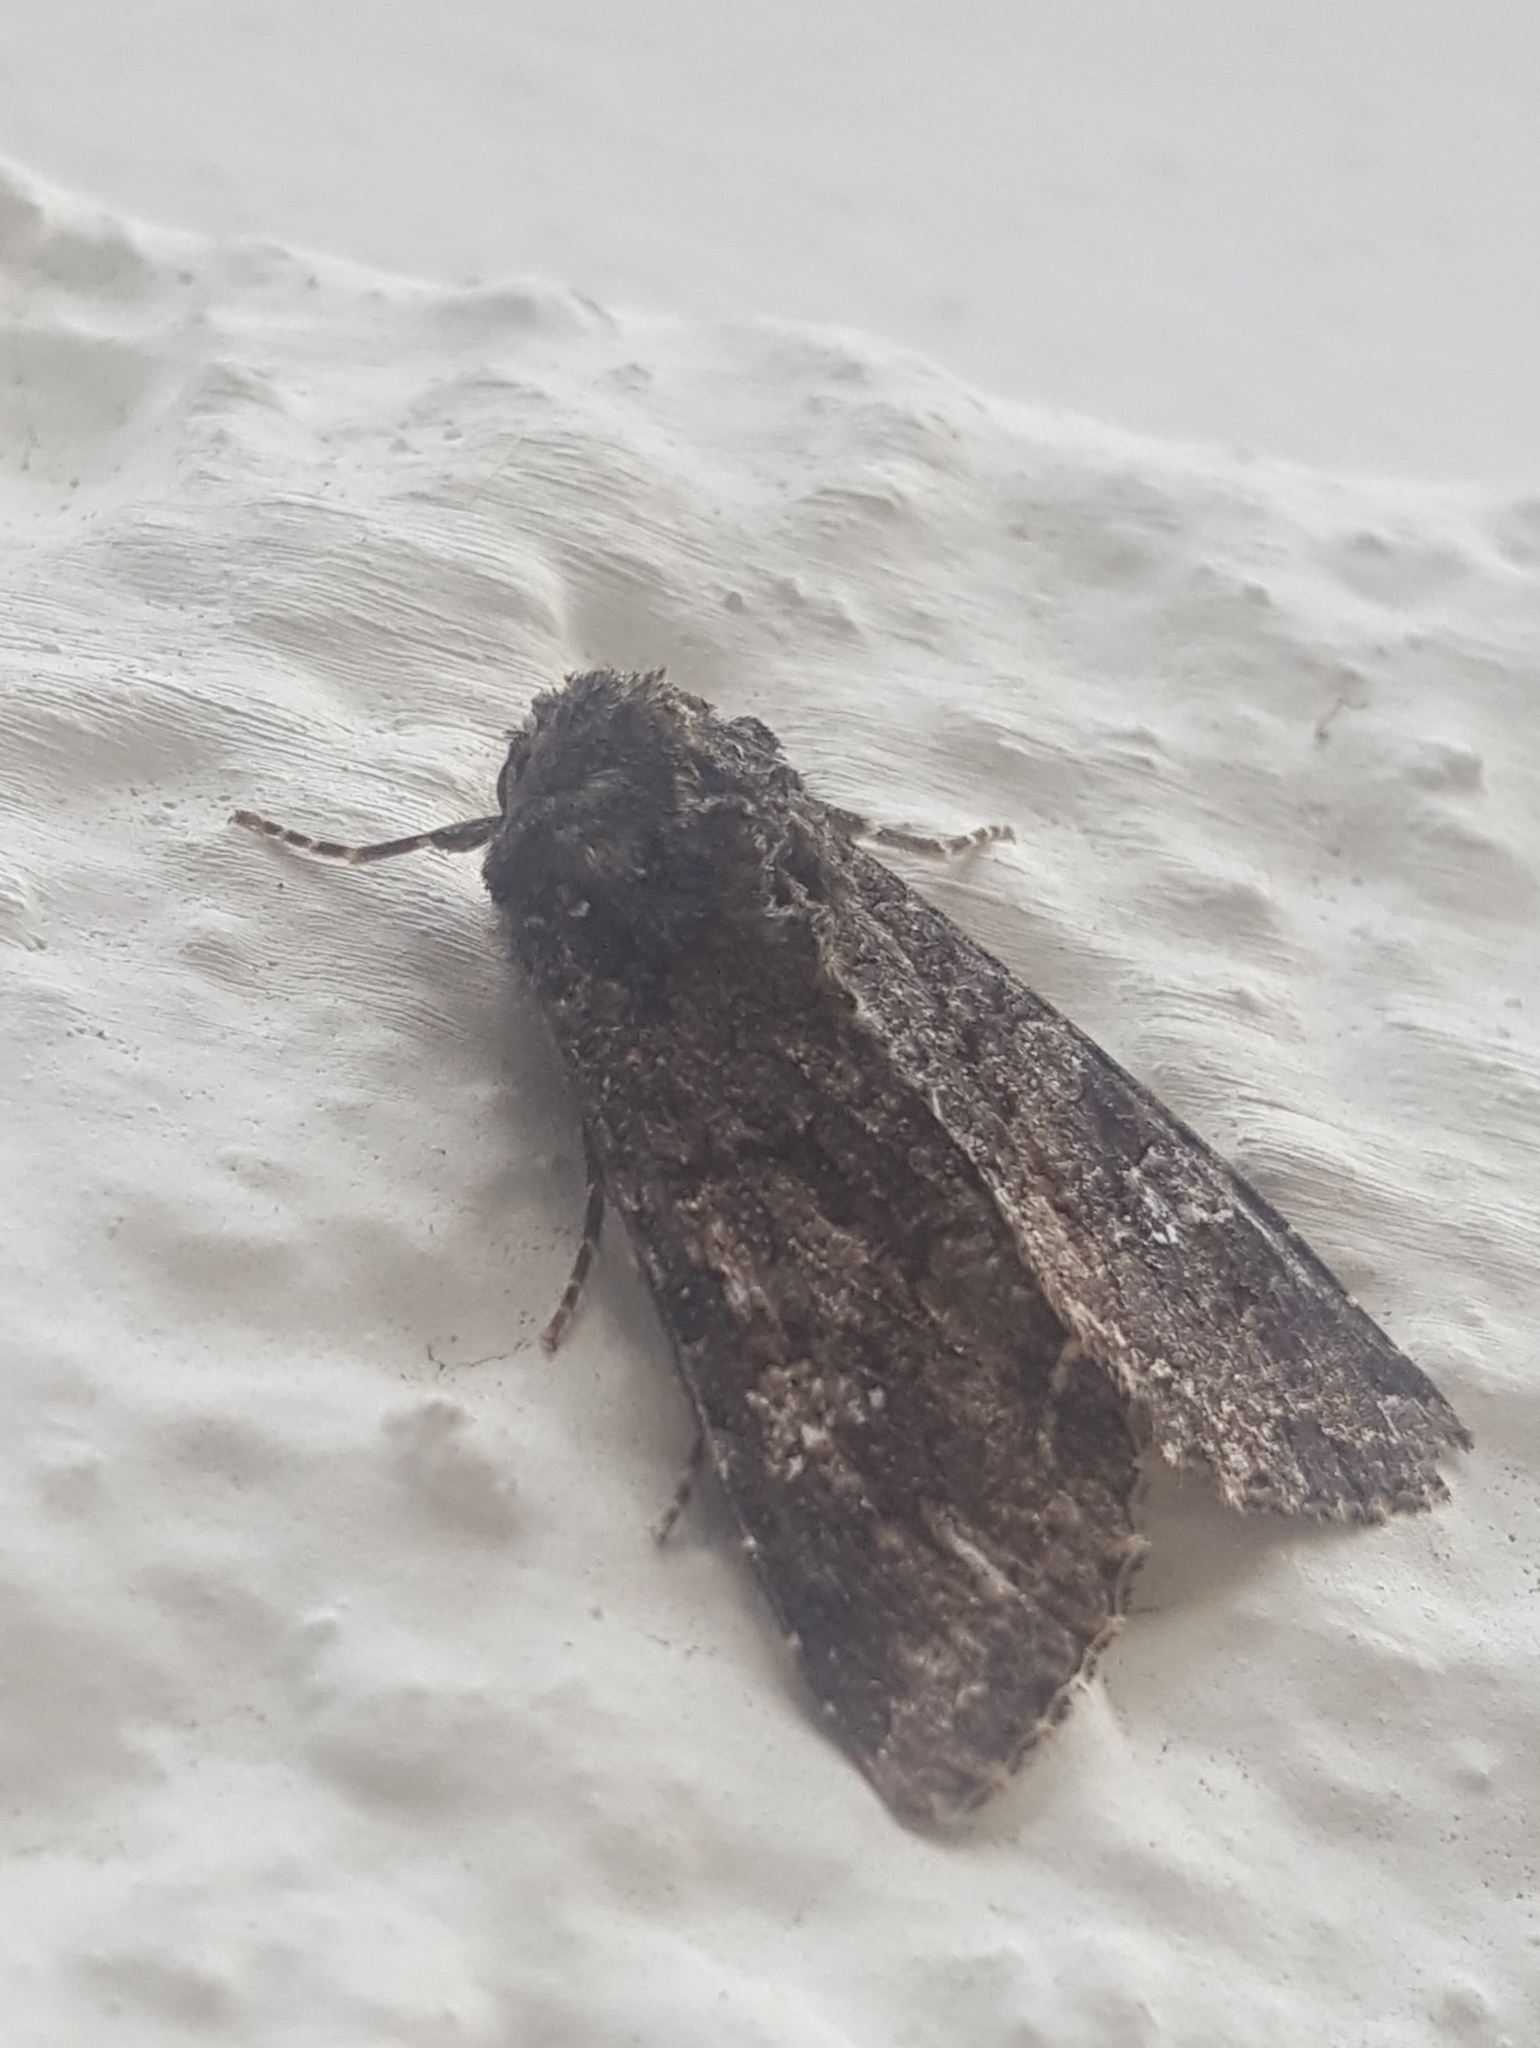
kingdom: Animalia
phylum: Arthropoda
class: Insecta
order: Lepidoptera
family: Noctuidae
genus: Mamestra
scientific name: Mamestra brassicae
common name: Cabbage moth
